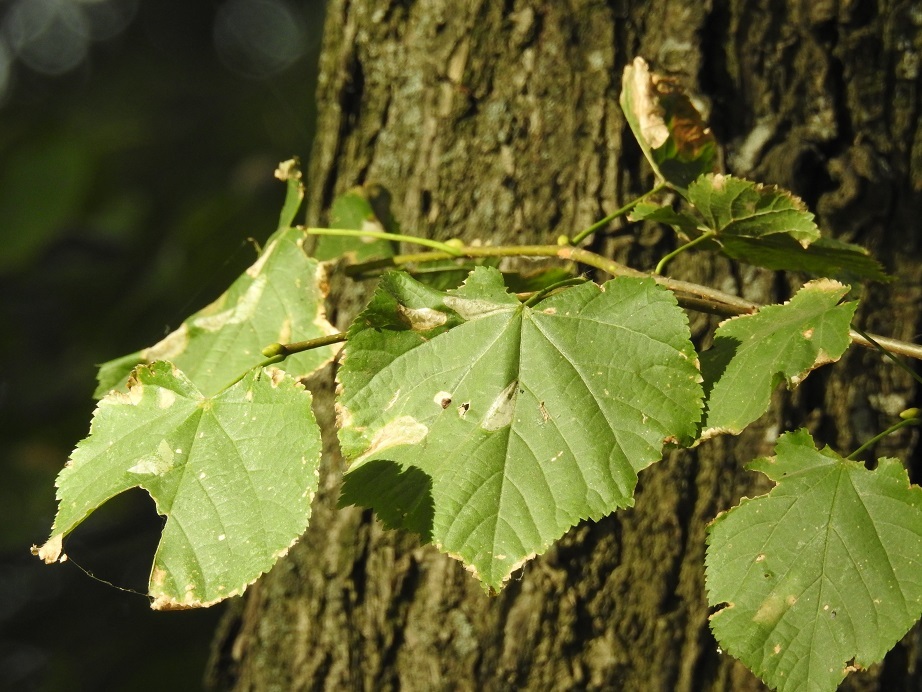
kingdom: Plantae
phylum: Tracheophyta
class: Magnoliopsida
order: Malvales
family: Malvaceae
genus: Tilia
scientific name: Tilia cordata
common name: Small-leaved lime
